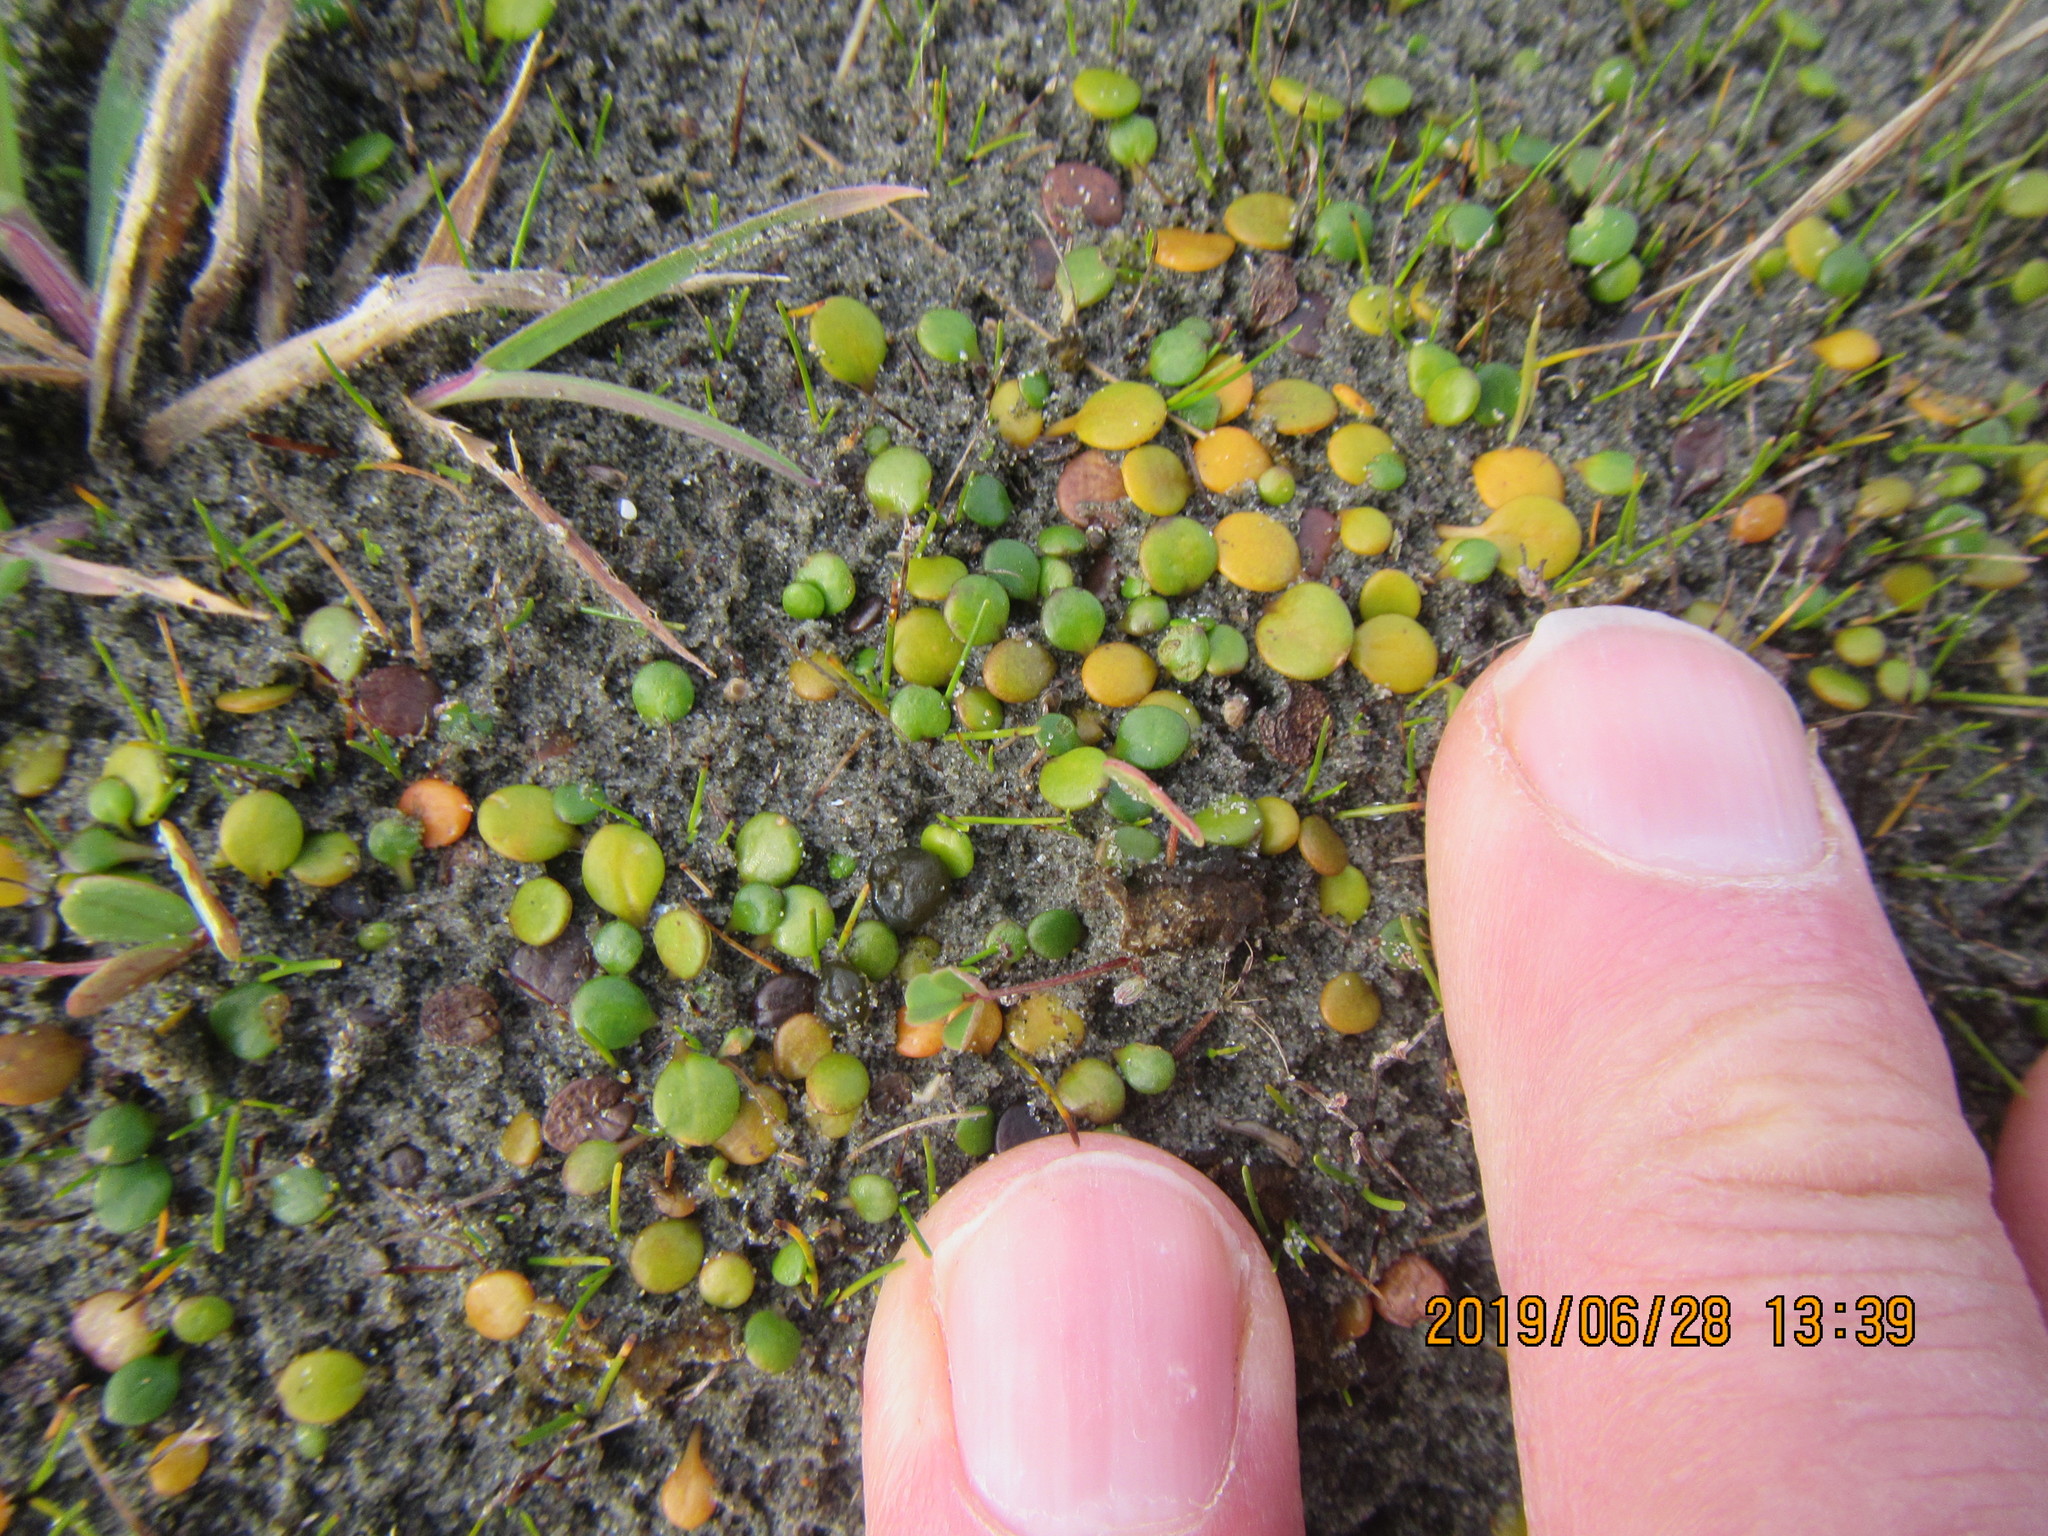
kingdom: Plantae
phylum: Tracheophyta
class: Magnoliopsida
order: Asterales
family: Goodeniaceae
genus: Goodenia
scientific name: Goodenia heenanii
